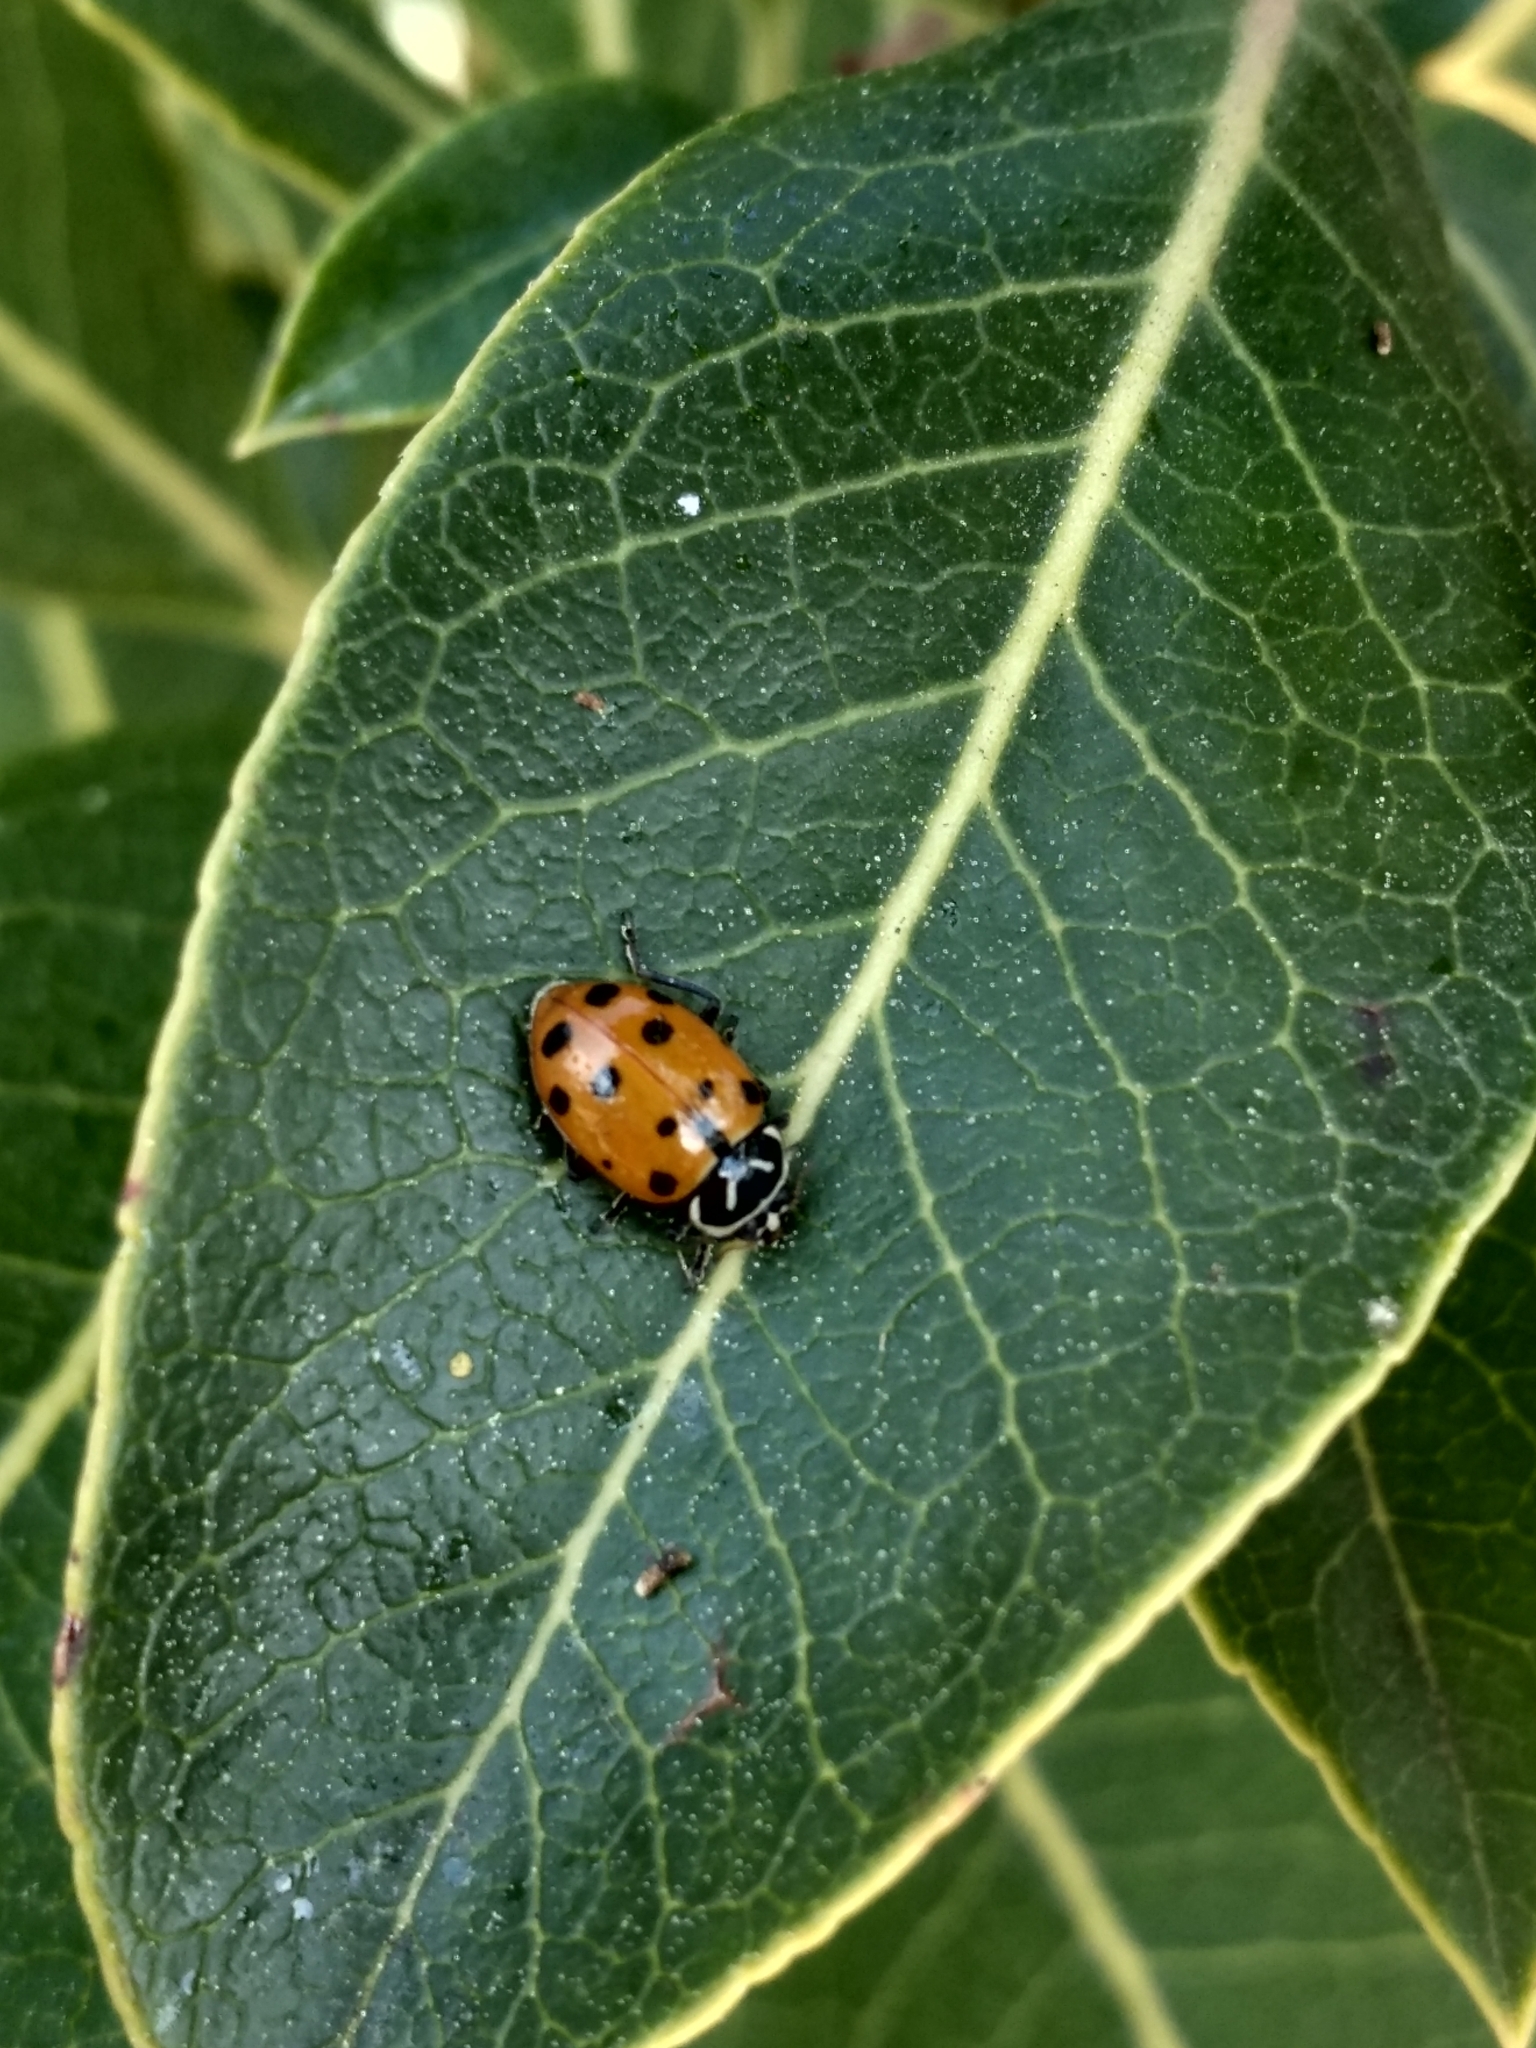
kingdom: Animalia
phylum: Arthropoda
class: Insecta
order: Coleoptera
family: Coccinellidae
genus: Hippodamia
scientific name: Hippodamia convergens
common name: Convergent lady beetle
